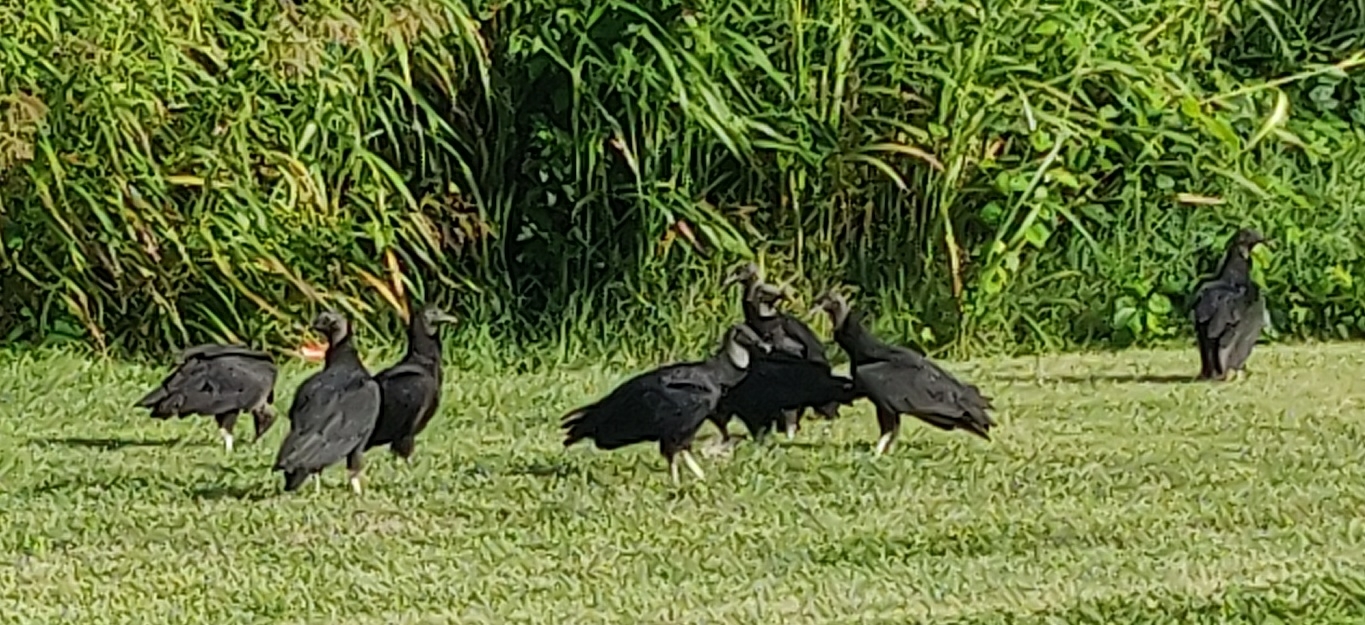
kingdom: Animalia
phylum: Chordata
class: Aves
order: Accipitriformes
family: Cathartidae
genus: Coragyps
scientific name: Coragyps atratus
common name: Black vulture
